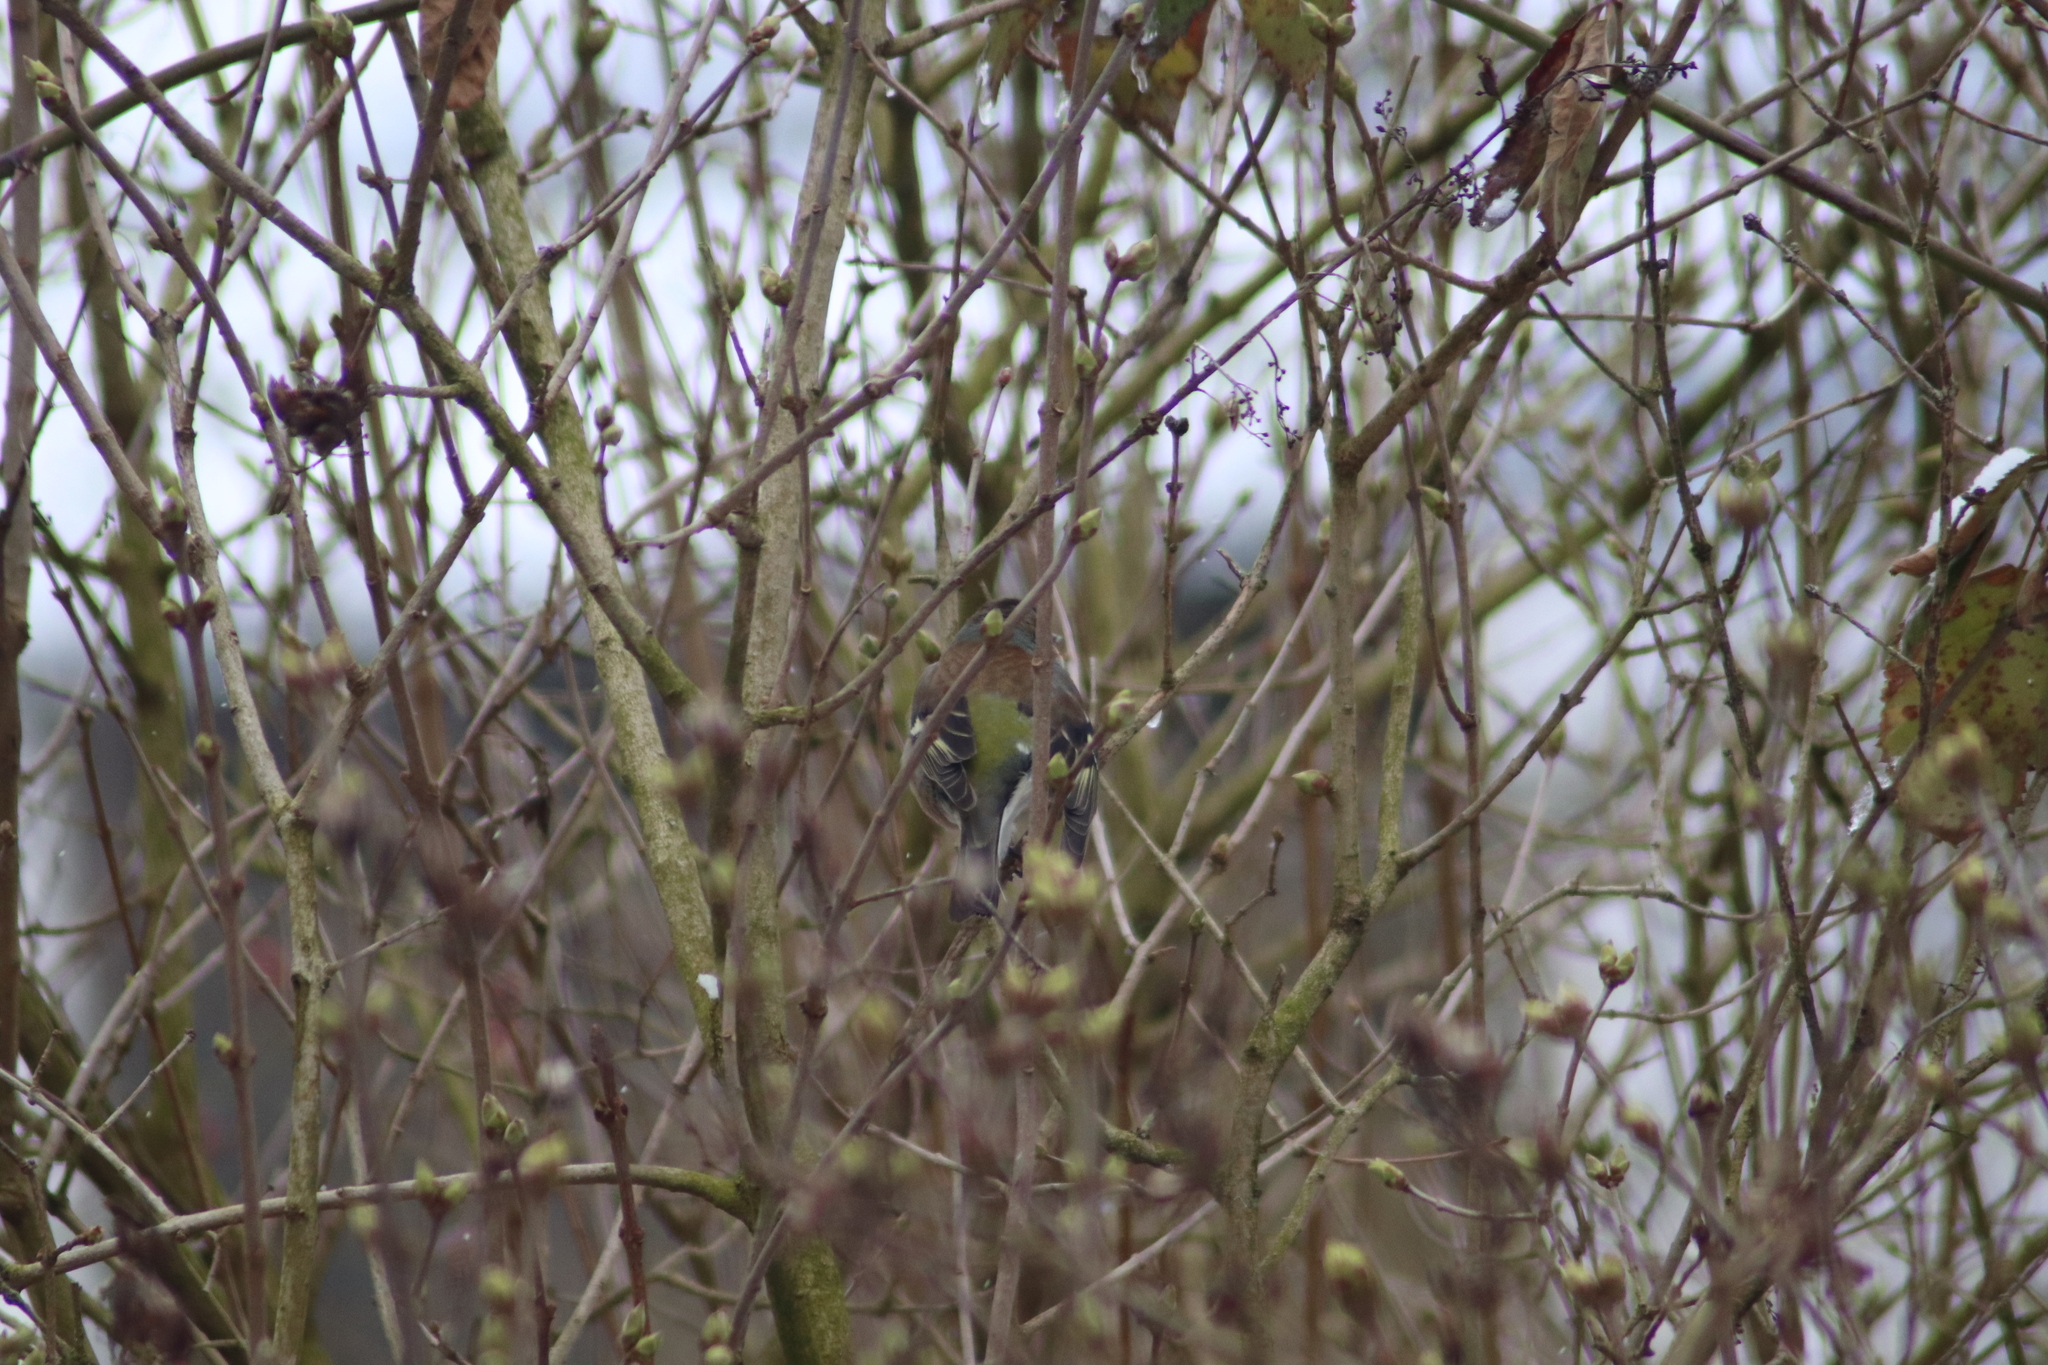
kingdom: Animalia
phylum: Chordata
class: Aves
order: Passeriformes
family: Fringillidae
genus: Fringilla
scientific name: Fringilla coelebs
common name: Common chaffinch
